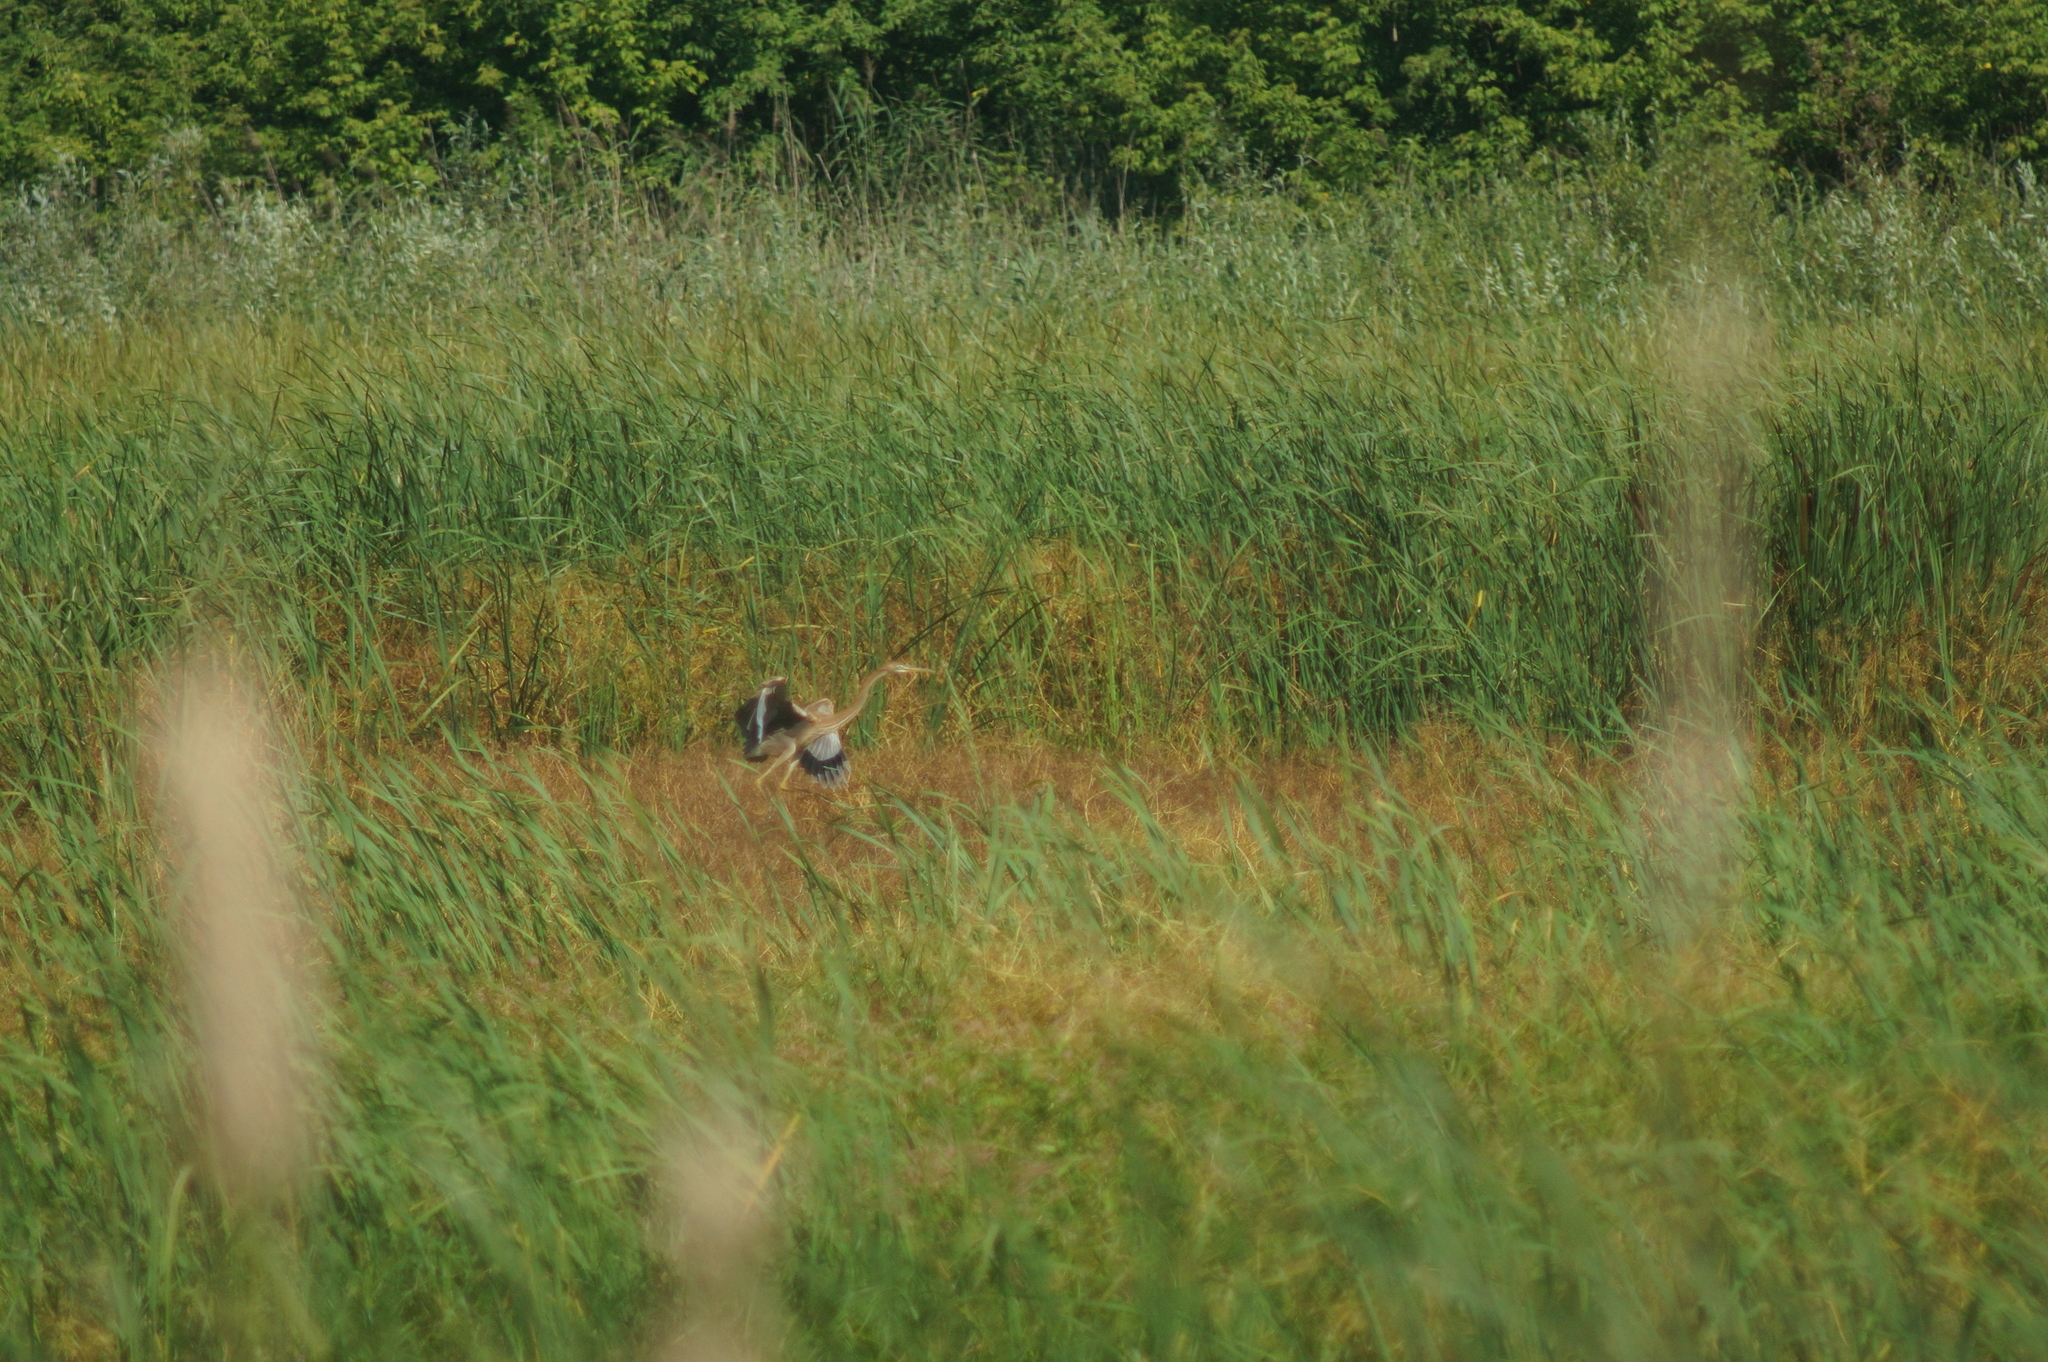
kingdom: Animalia
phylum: Chordata
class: Aves
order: Pelecaniformes
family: Ardeidae
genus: Ardea
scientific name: Ardea purpurea
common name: Purple heron
